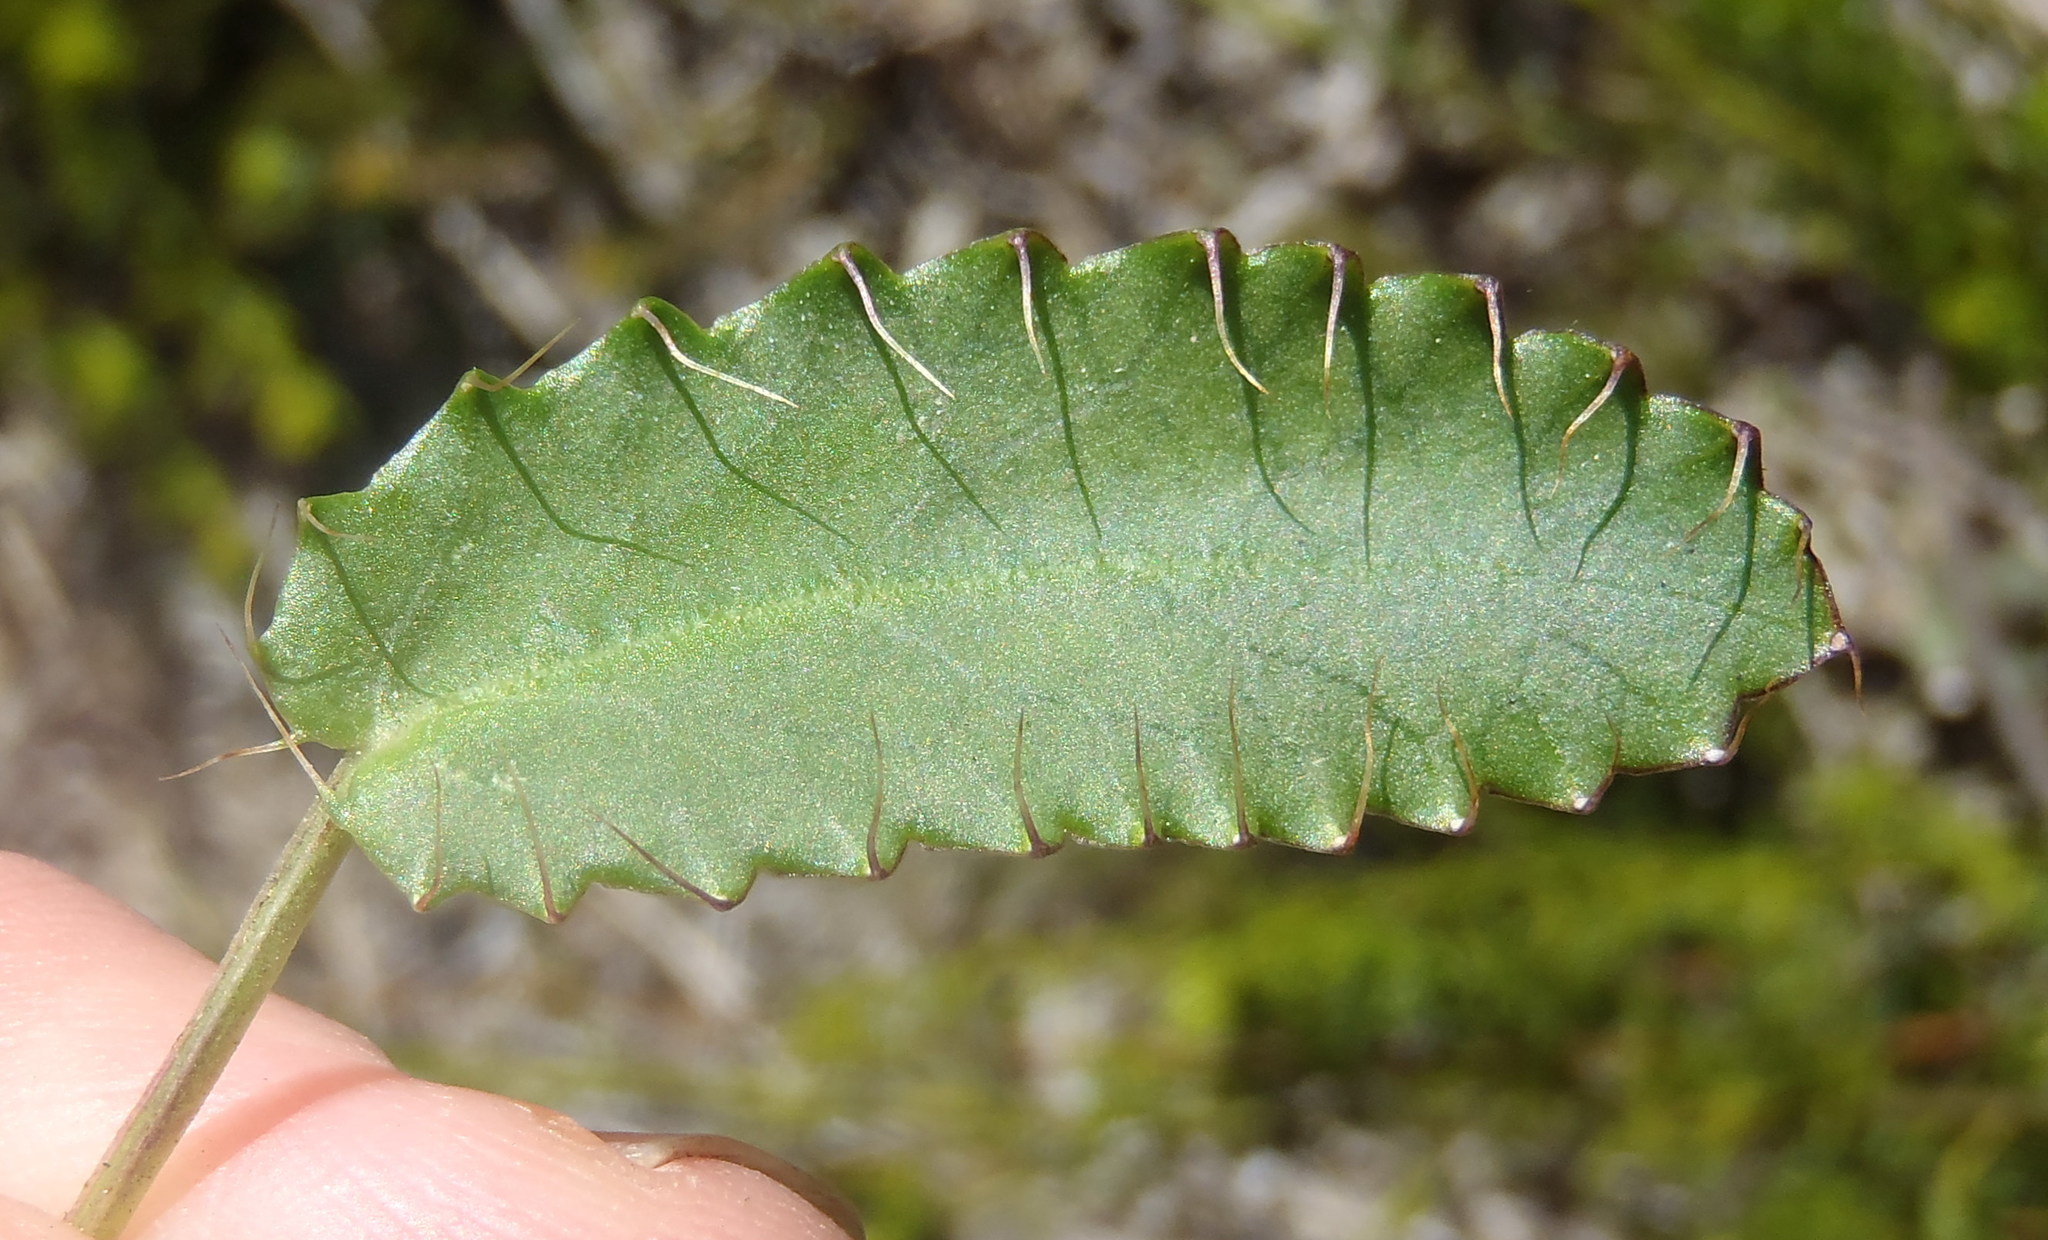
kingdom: Plantae
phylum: Tracheophyta
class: Magnoliopsida
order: Apiales
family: Apiaceae
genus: Alepidea
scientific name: Alepidea capensis
